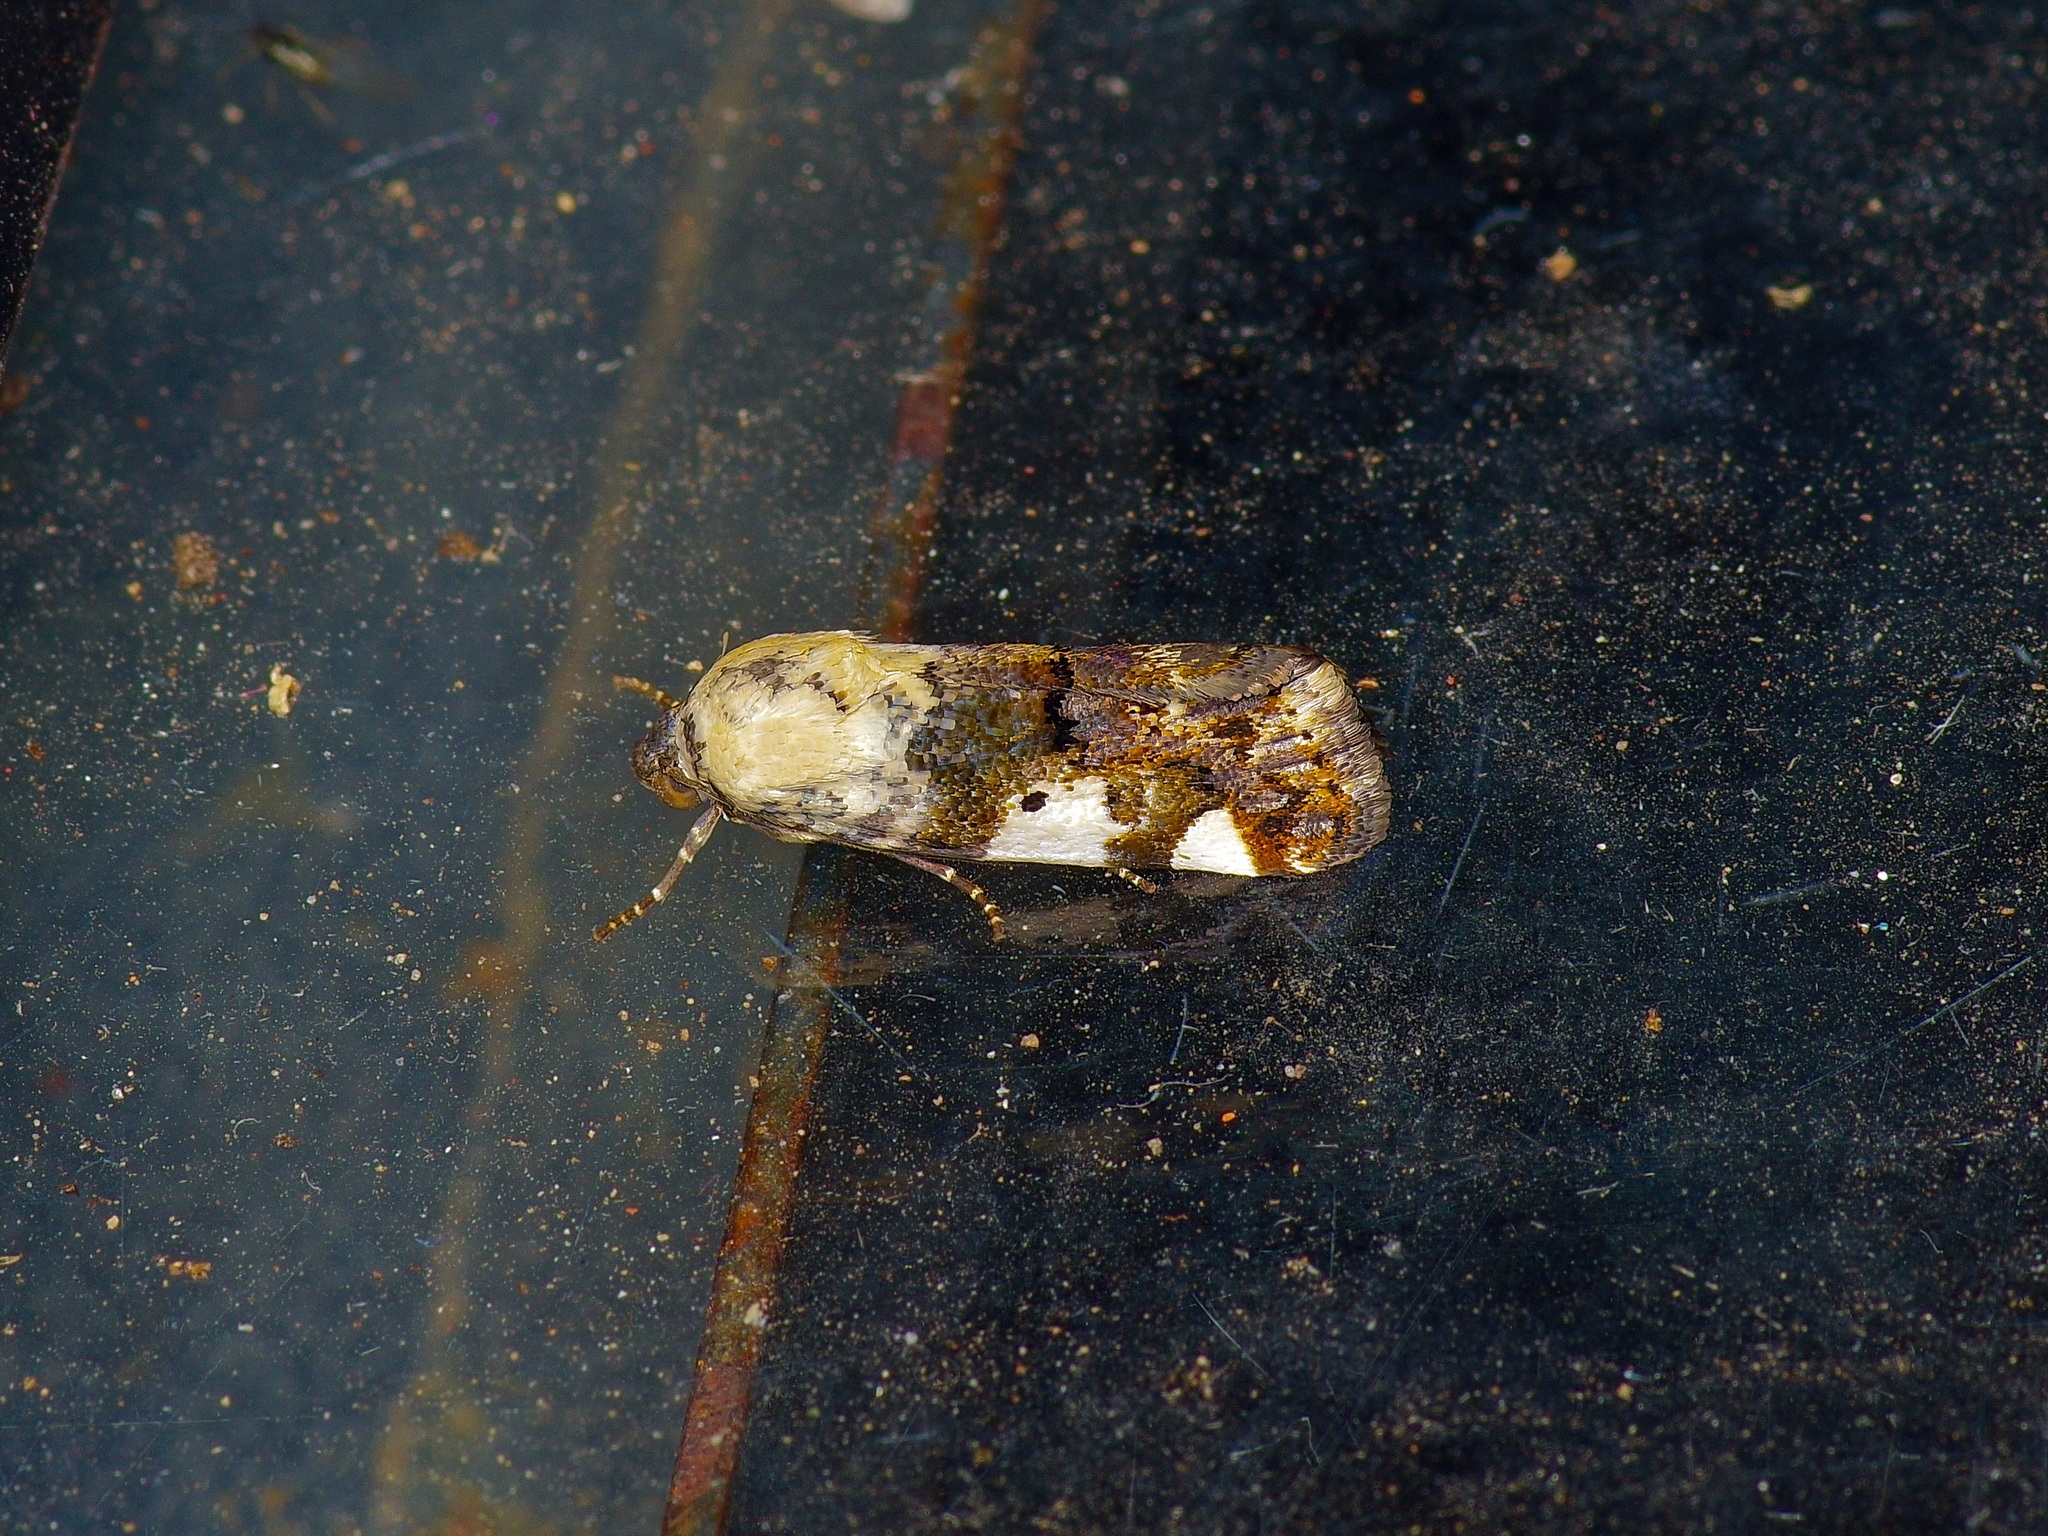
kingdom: Animalia
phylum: Arthropoda
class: Insecta
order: Lepidoptera
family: Noctuidae
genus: Acontia
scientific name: Acontia aprica
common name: Nun
